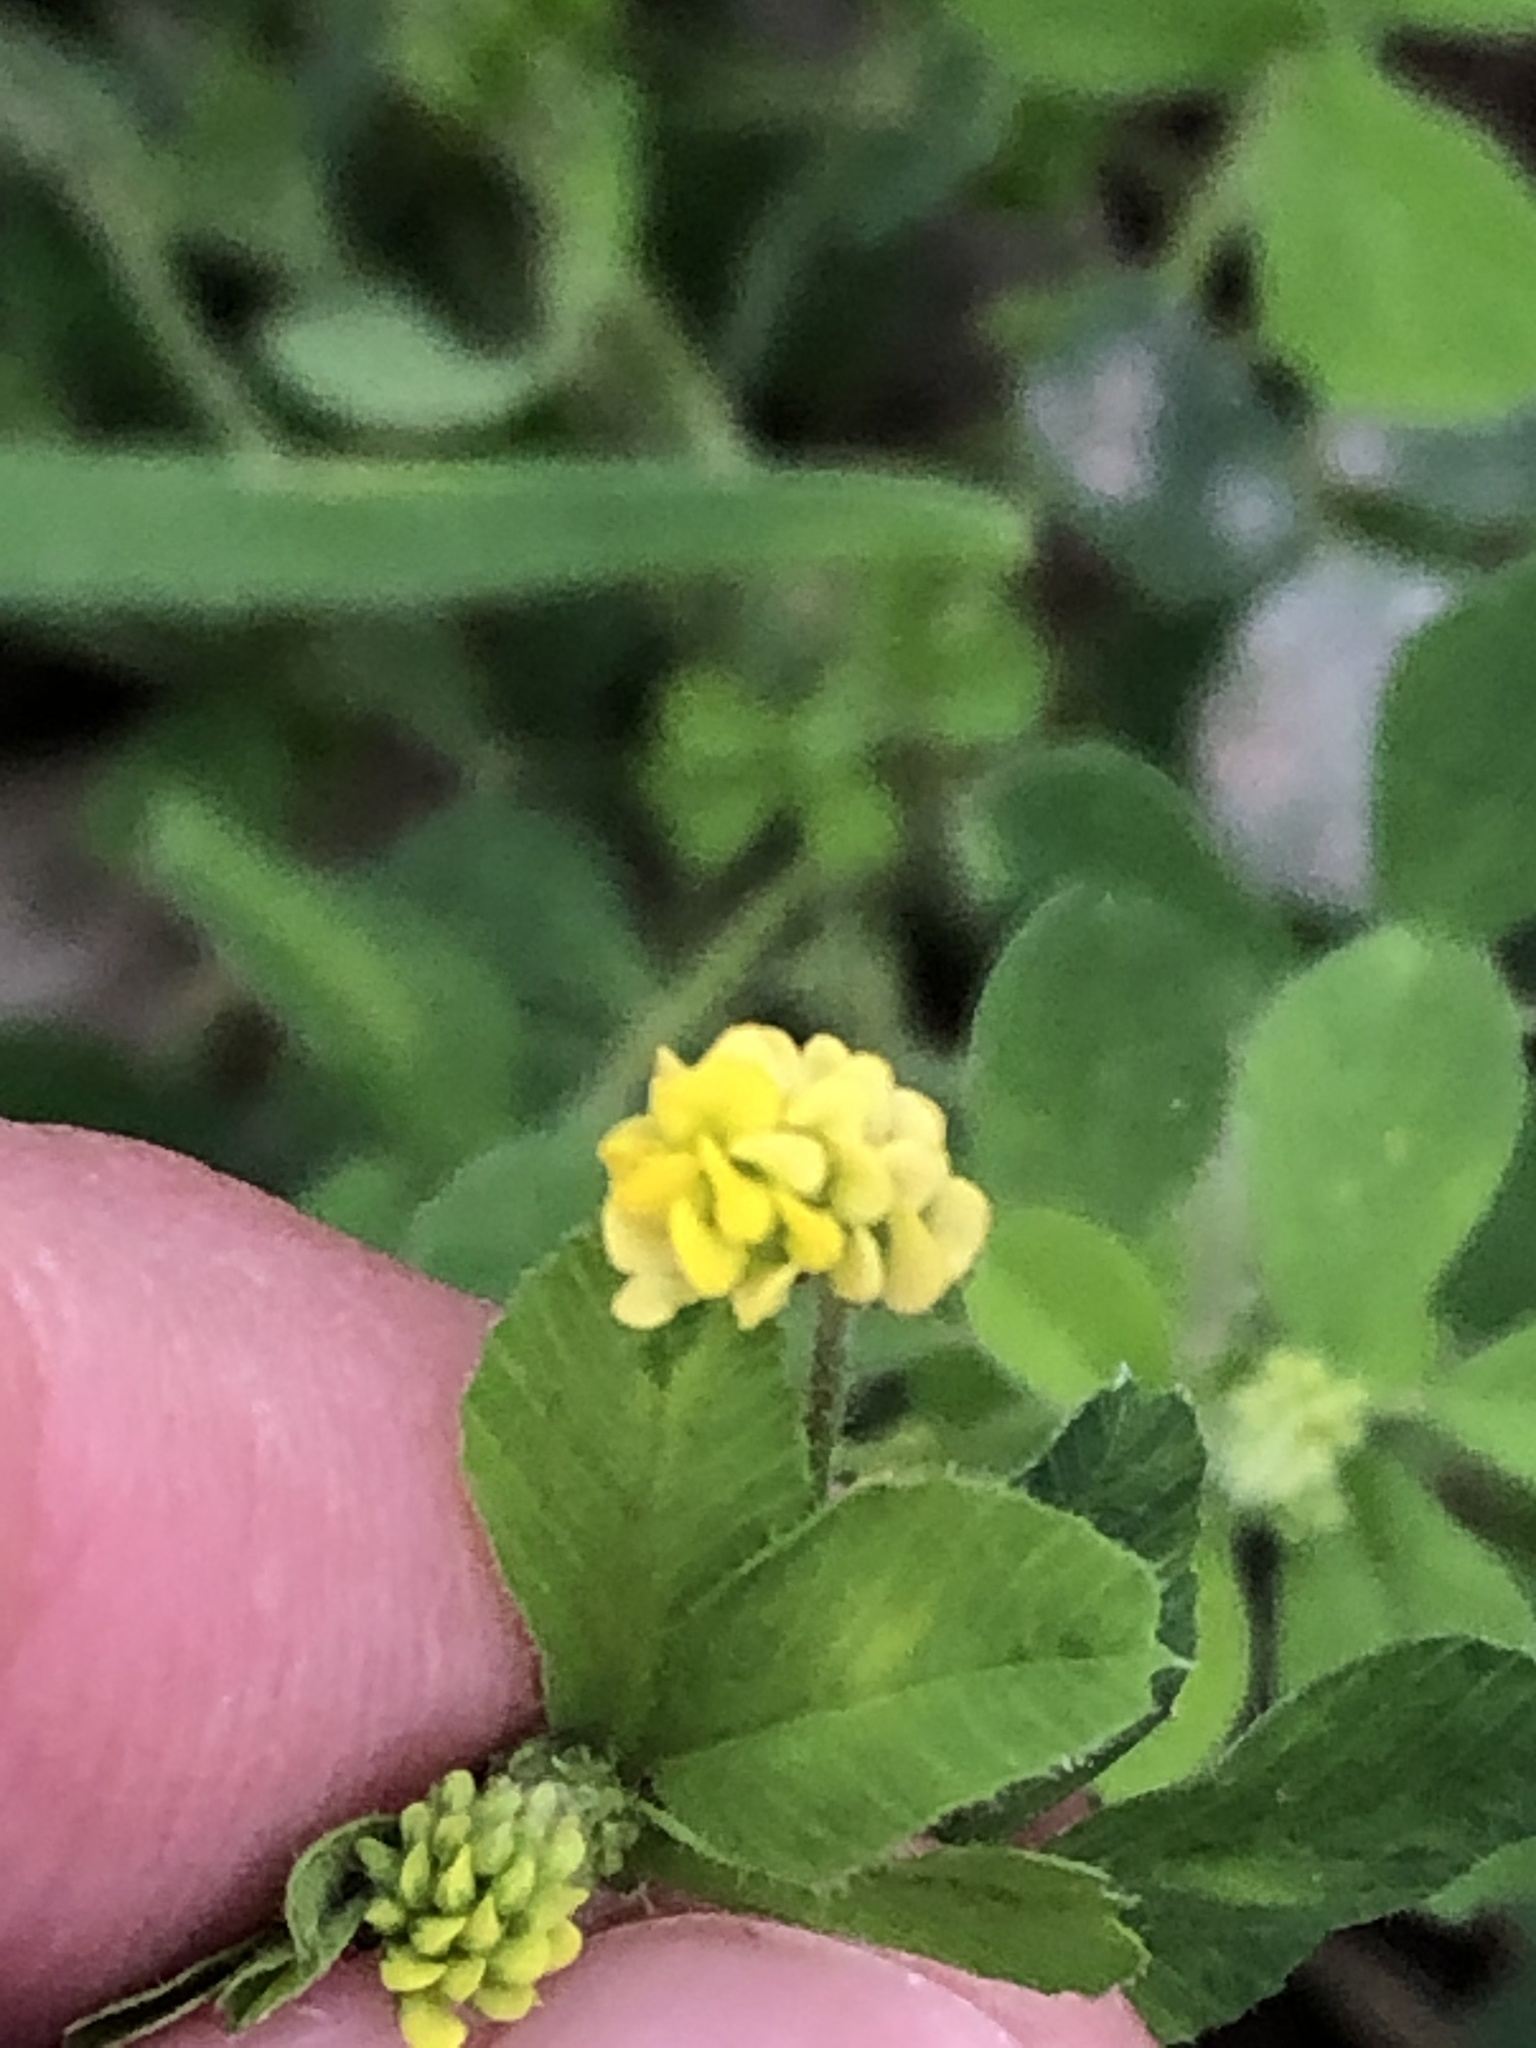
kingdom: Plantae
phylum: Tracheophyta
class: Magnoliopsida
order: Fabales
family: Fabaceae
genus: Medicago
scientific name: Medicago lupulina
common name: Black medick
